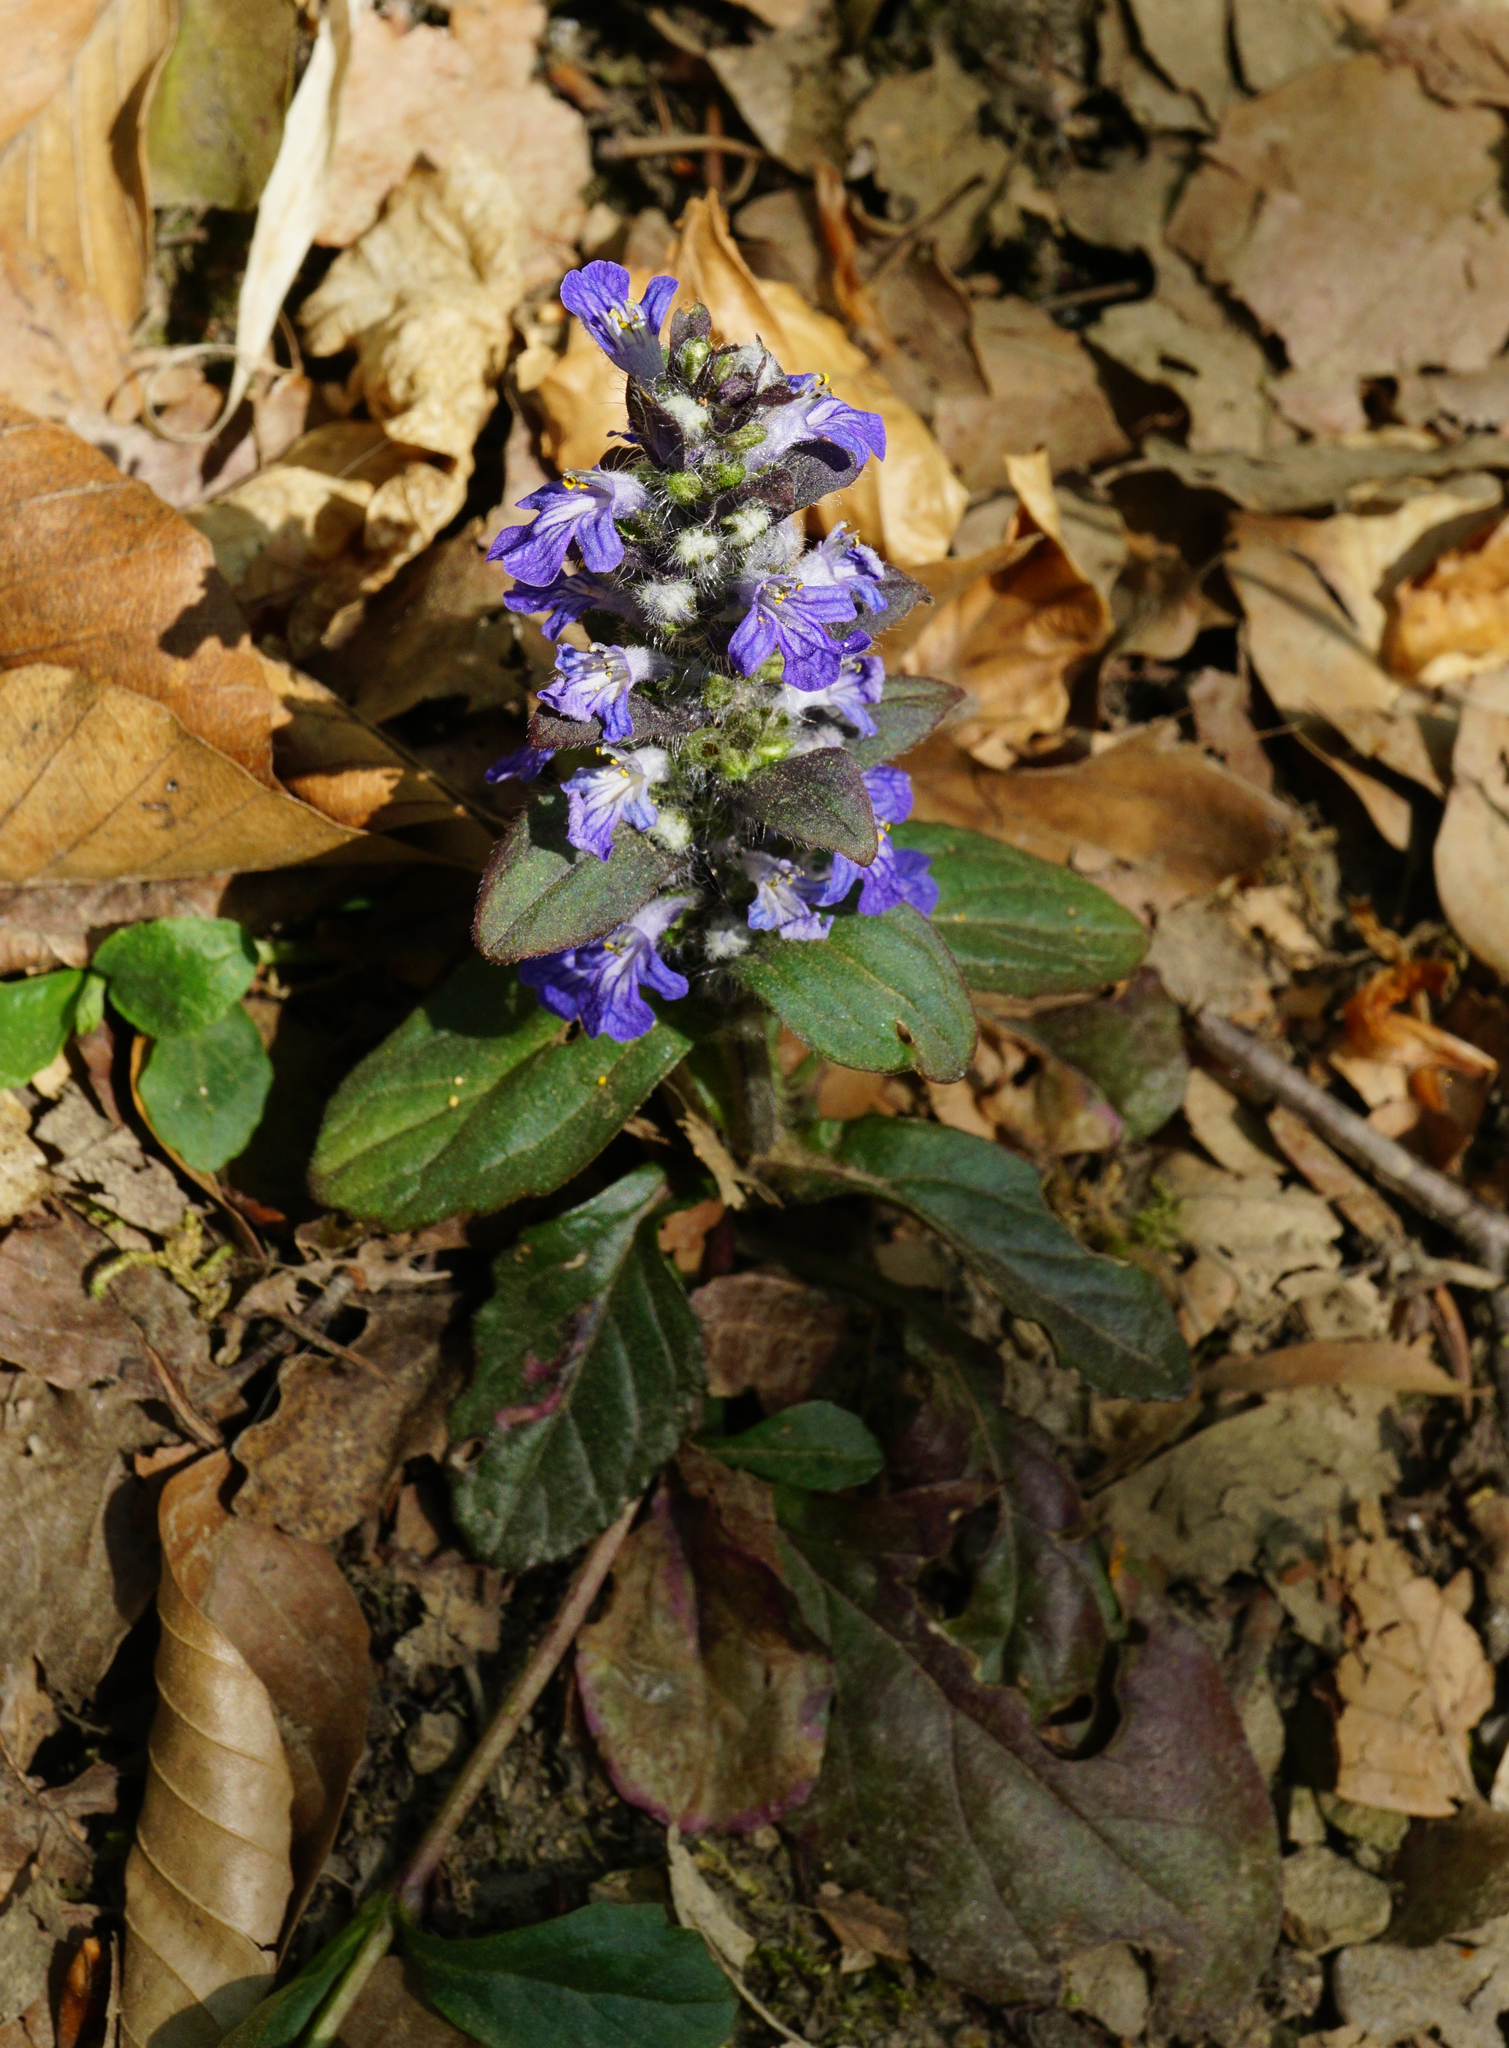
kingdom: Plantae
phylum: Tracheophyta
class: Magnoliopsida
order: Lamiales
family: Lamiaceae
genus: Ajuga
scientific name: Ajuga reptans
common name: Bugle
